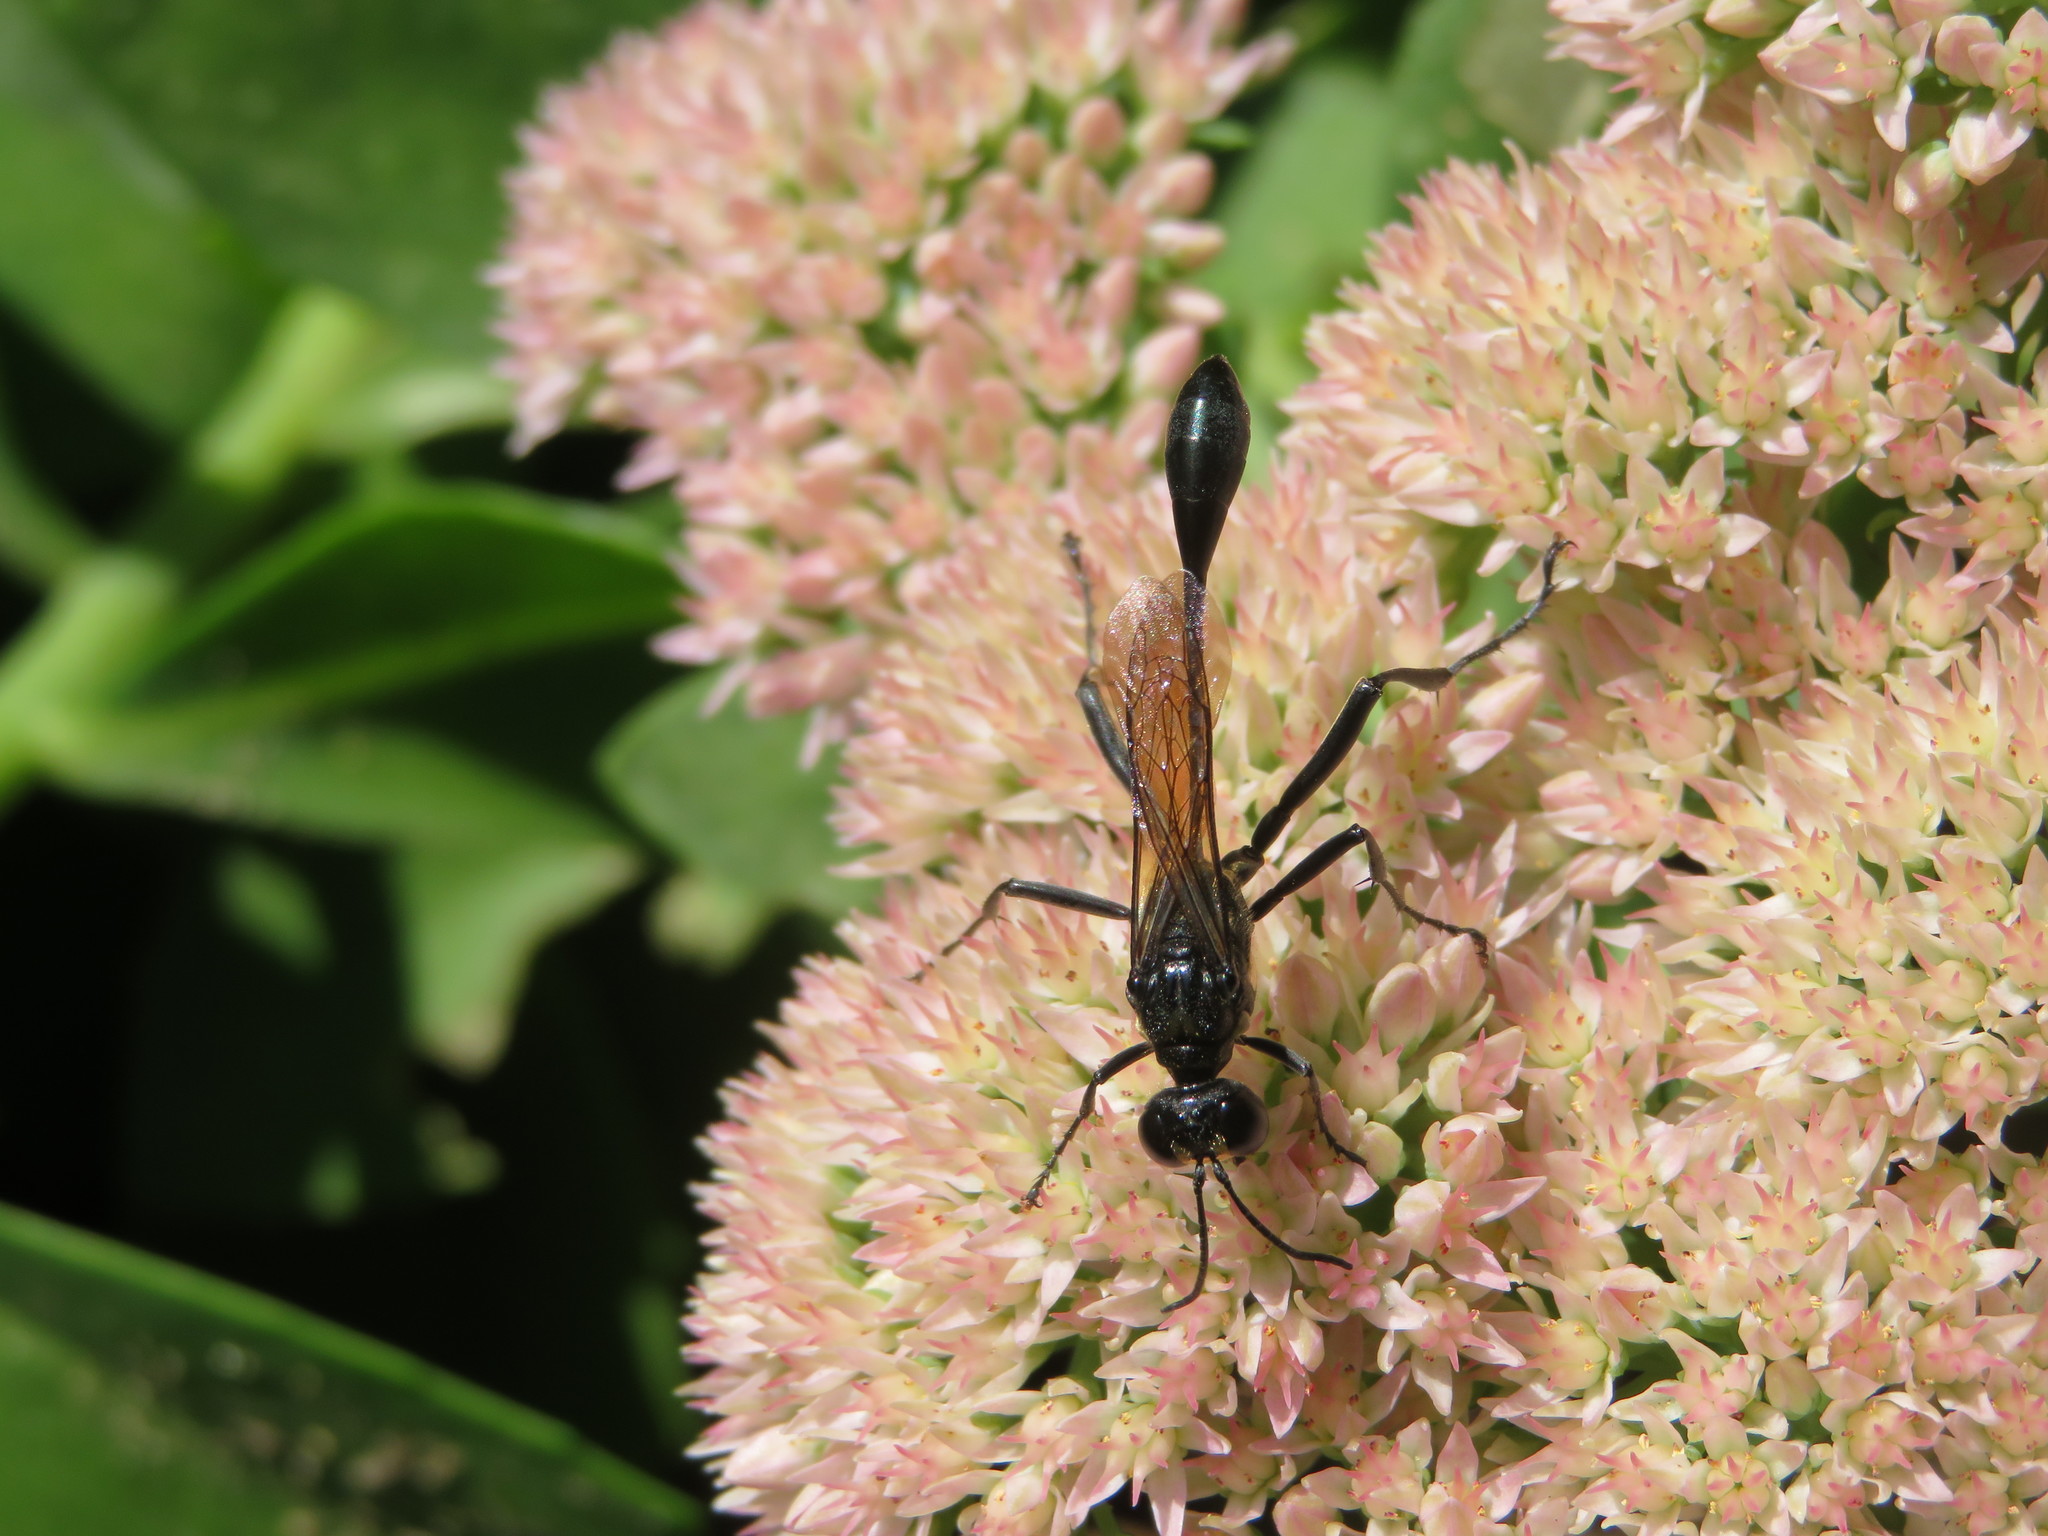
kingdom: Animalia
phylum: Arthropoda
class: Insecta
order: Hymenoptera
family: Sphecidae
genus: Eremnophila
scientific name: Eremnophila aureonotata
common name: Gold-marked thread-waisted wasp
